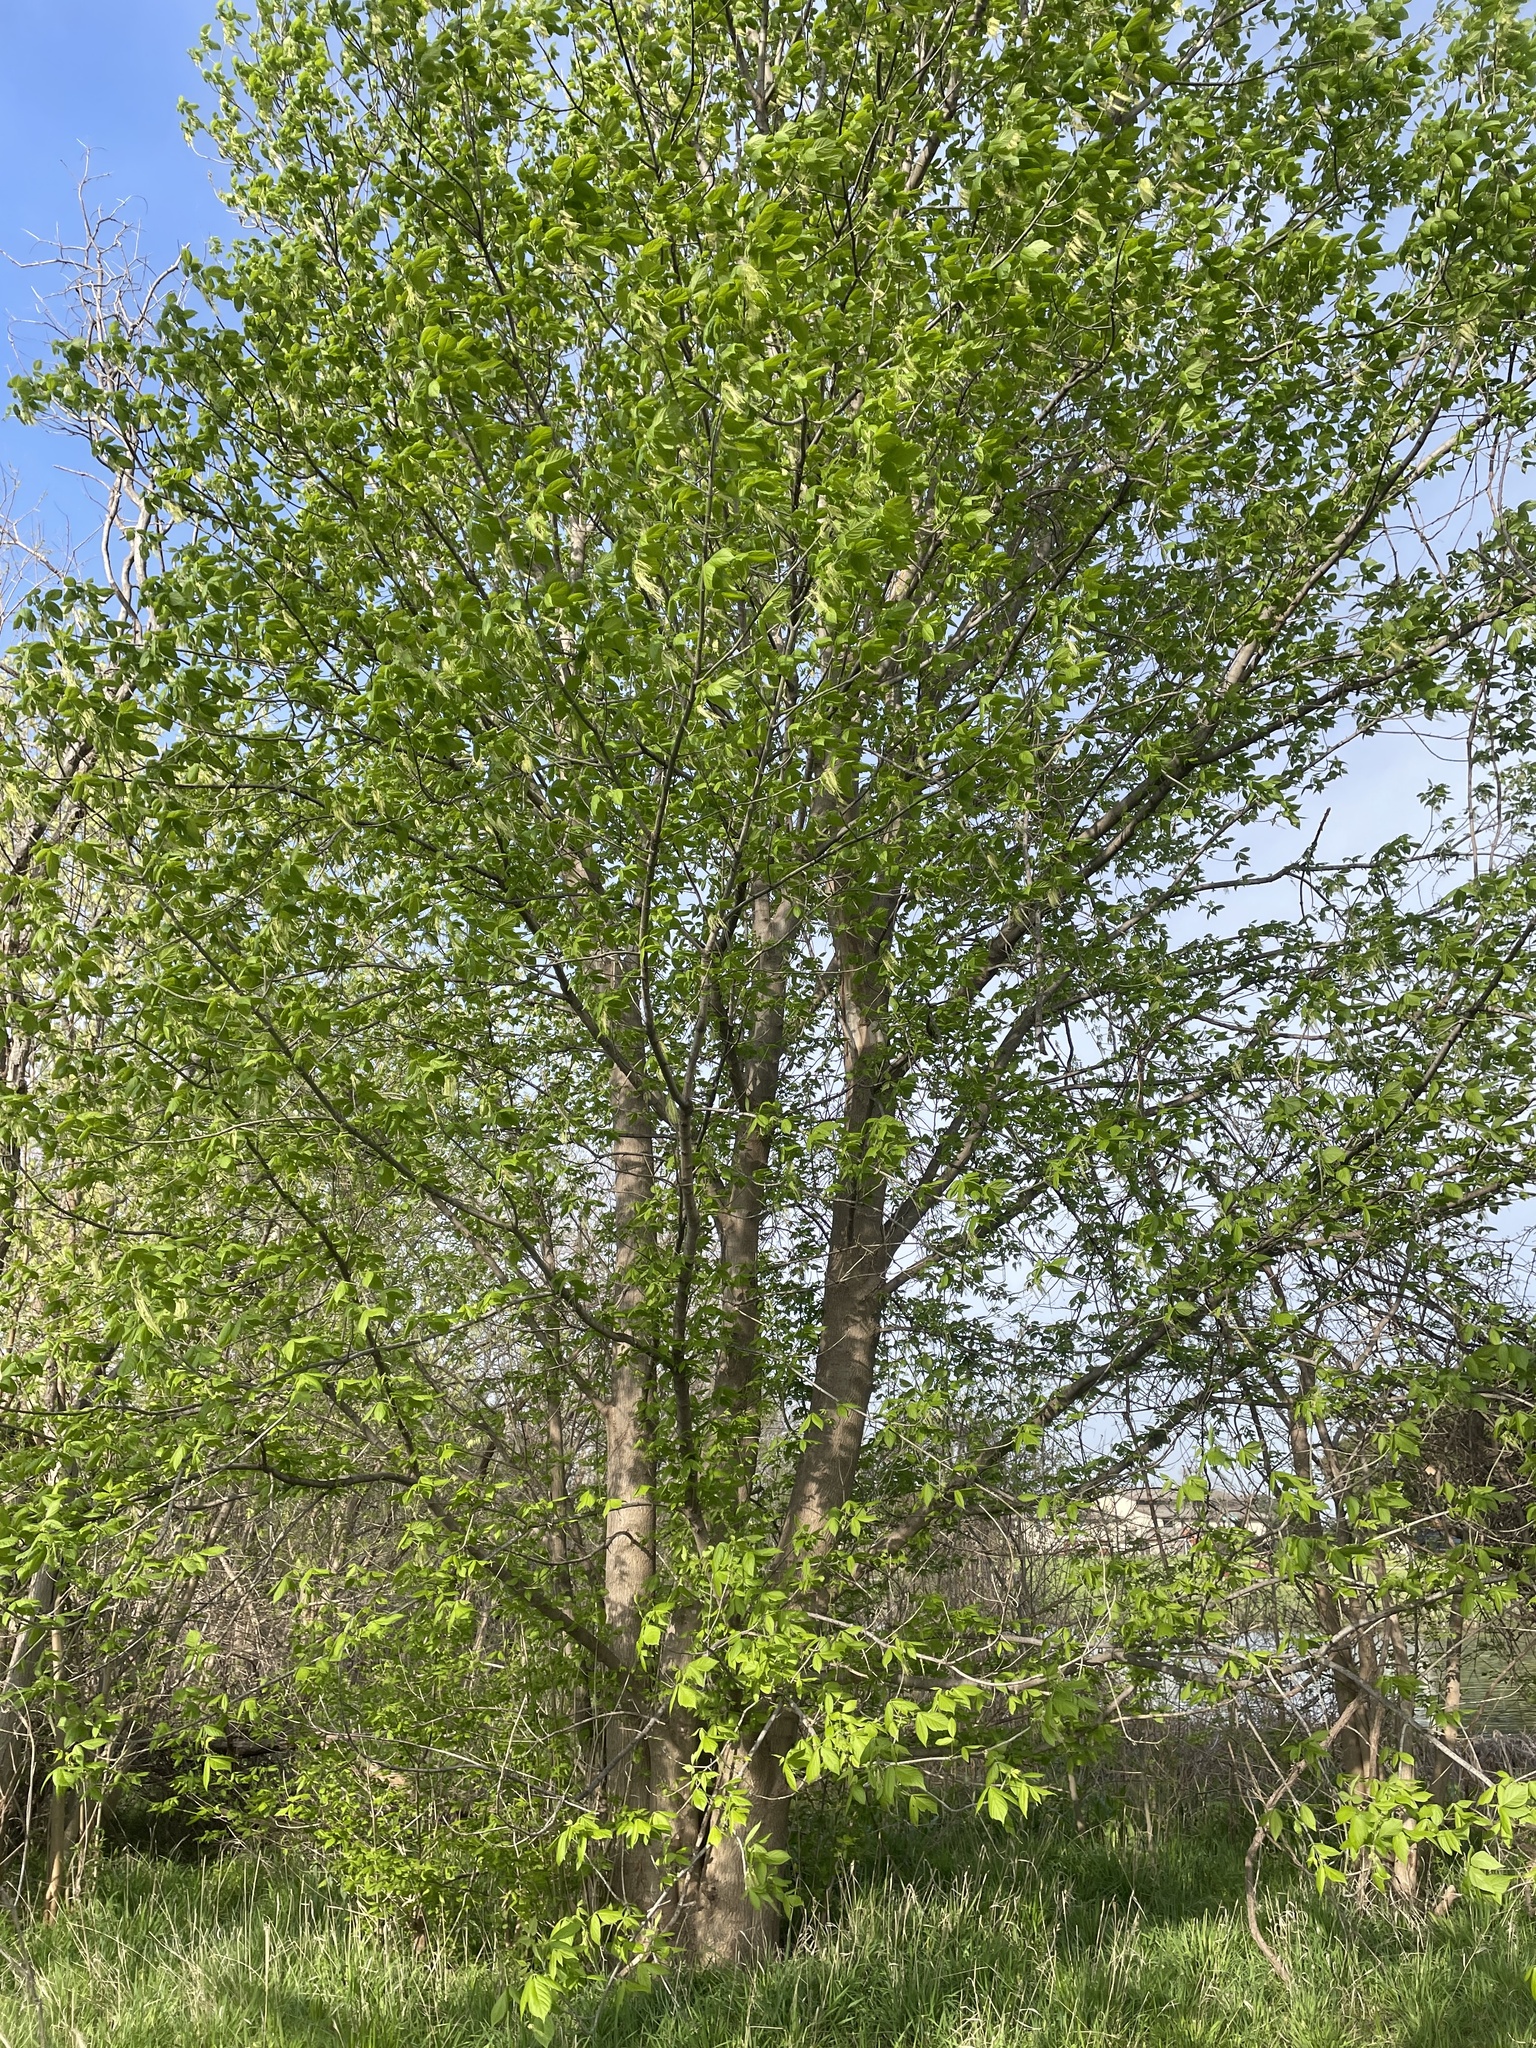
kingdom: Plantae
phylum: Tracheophyta
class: Magnoliopsida
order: Sapindales
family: Sapindaceae
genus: Acer
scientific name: Acer negundo
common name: Ashleaf maple
